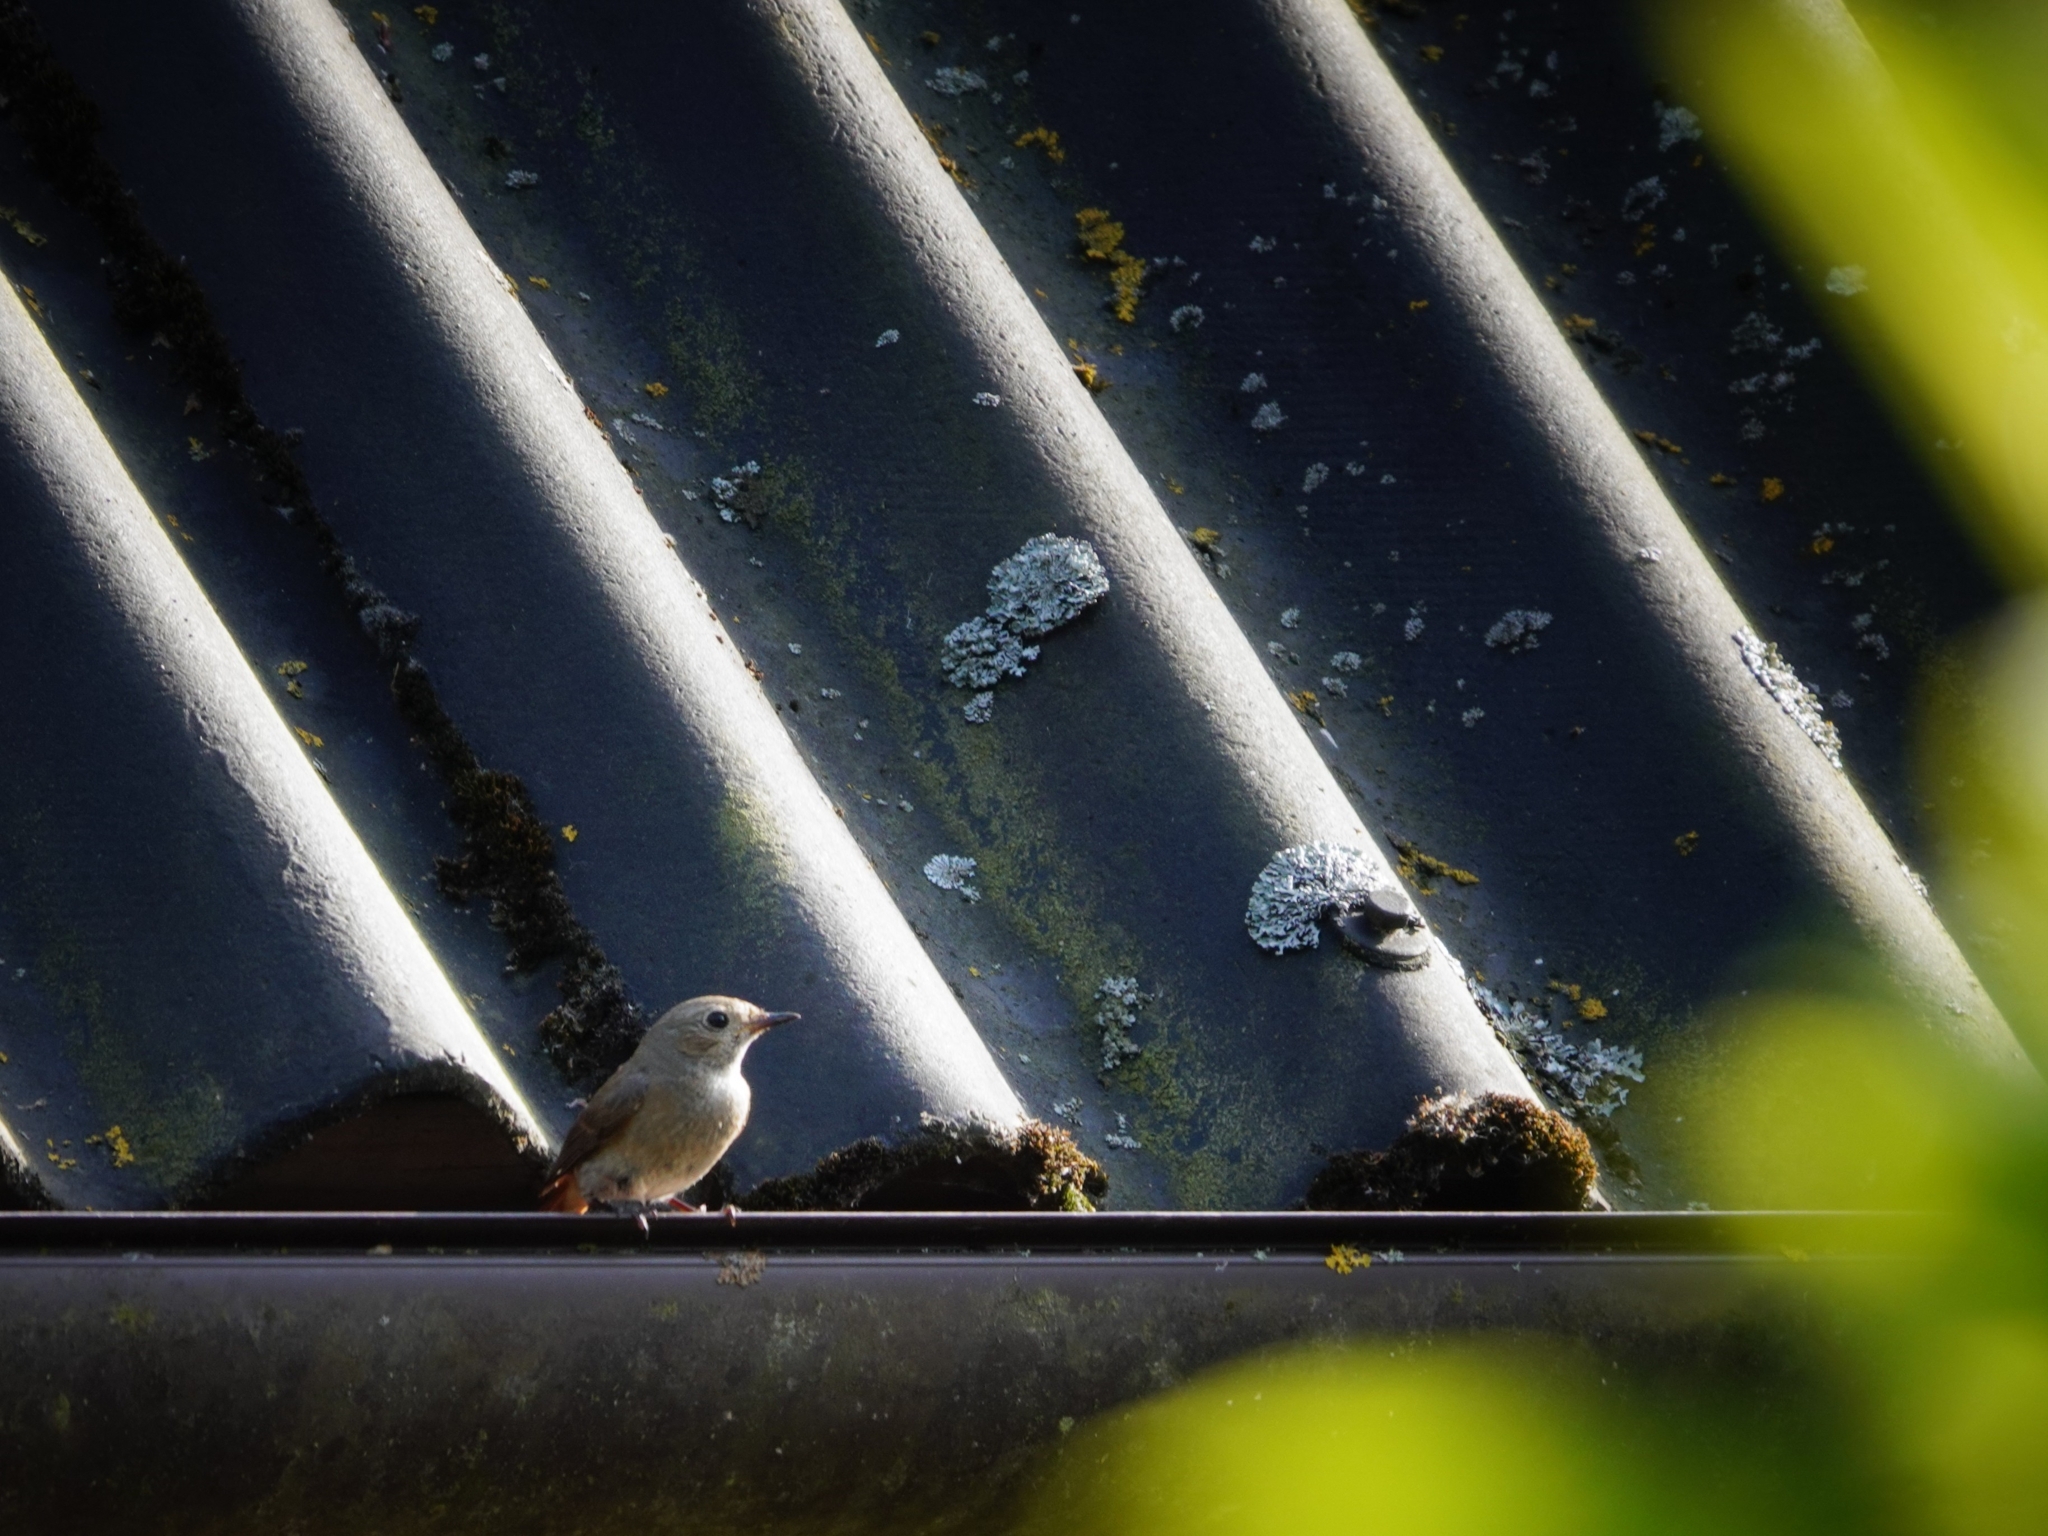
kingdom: Animalia
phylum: Chordata
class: Aves
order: Passeriformes
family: Muscicapidae
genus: Phoenicurus
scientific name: Phoenicurus phoenicurus
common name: Common redstart
